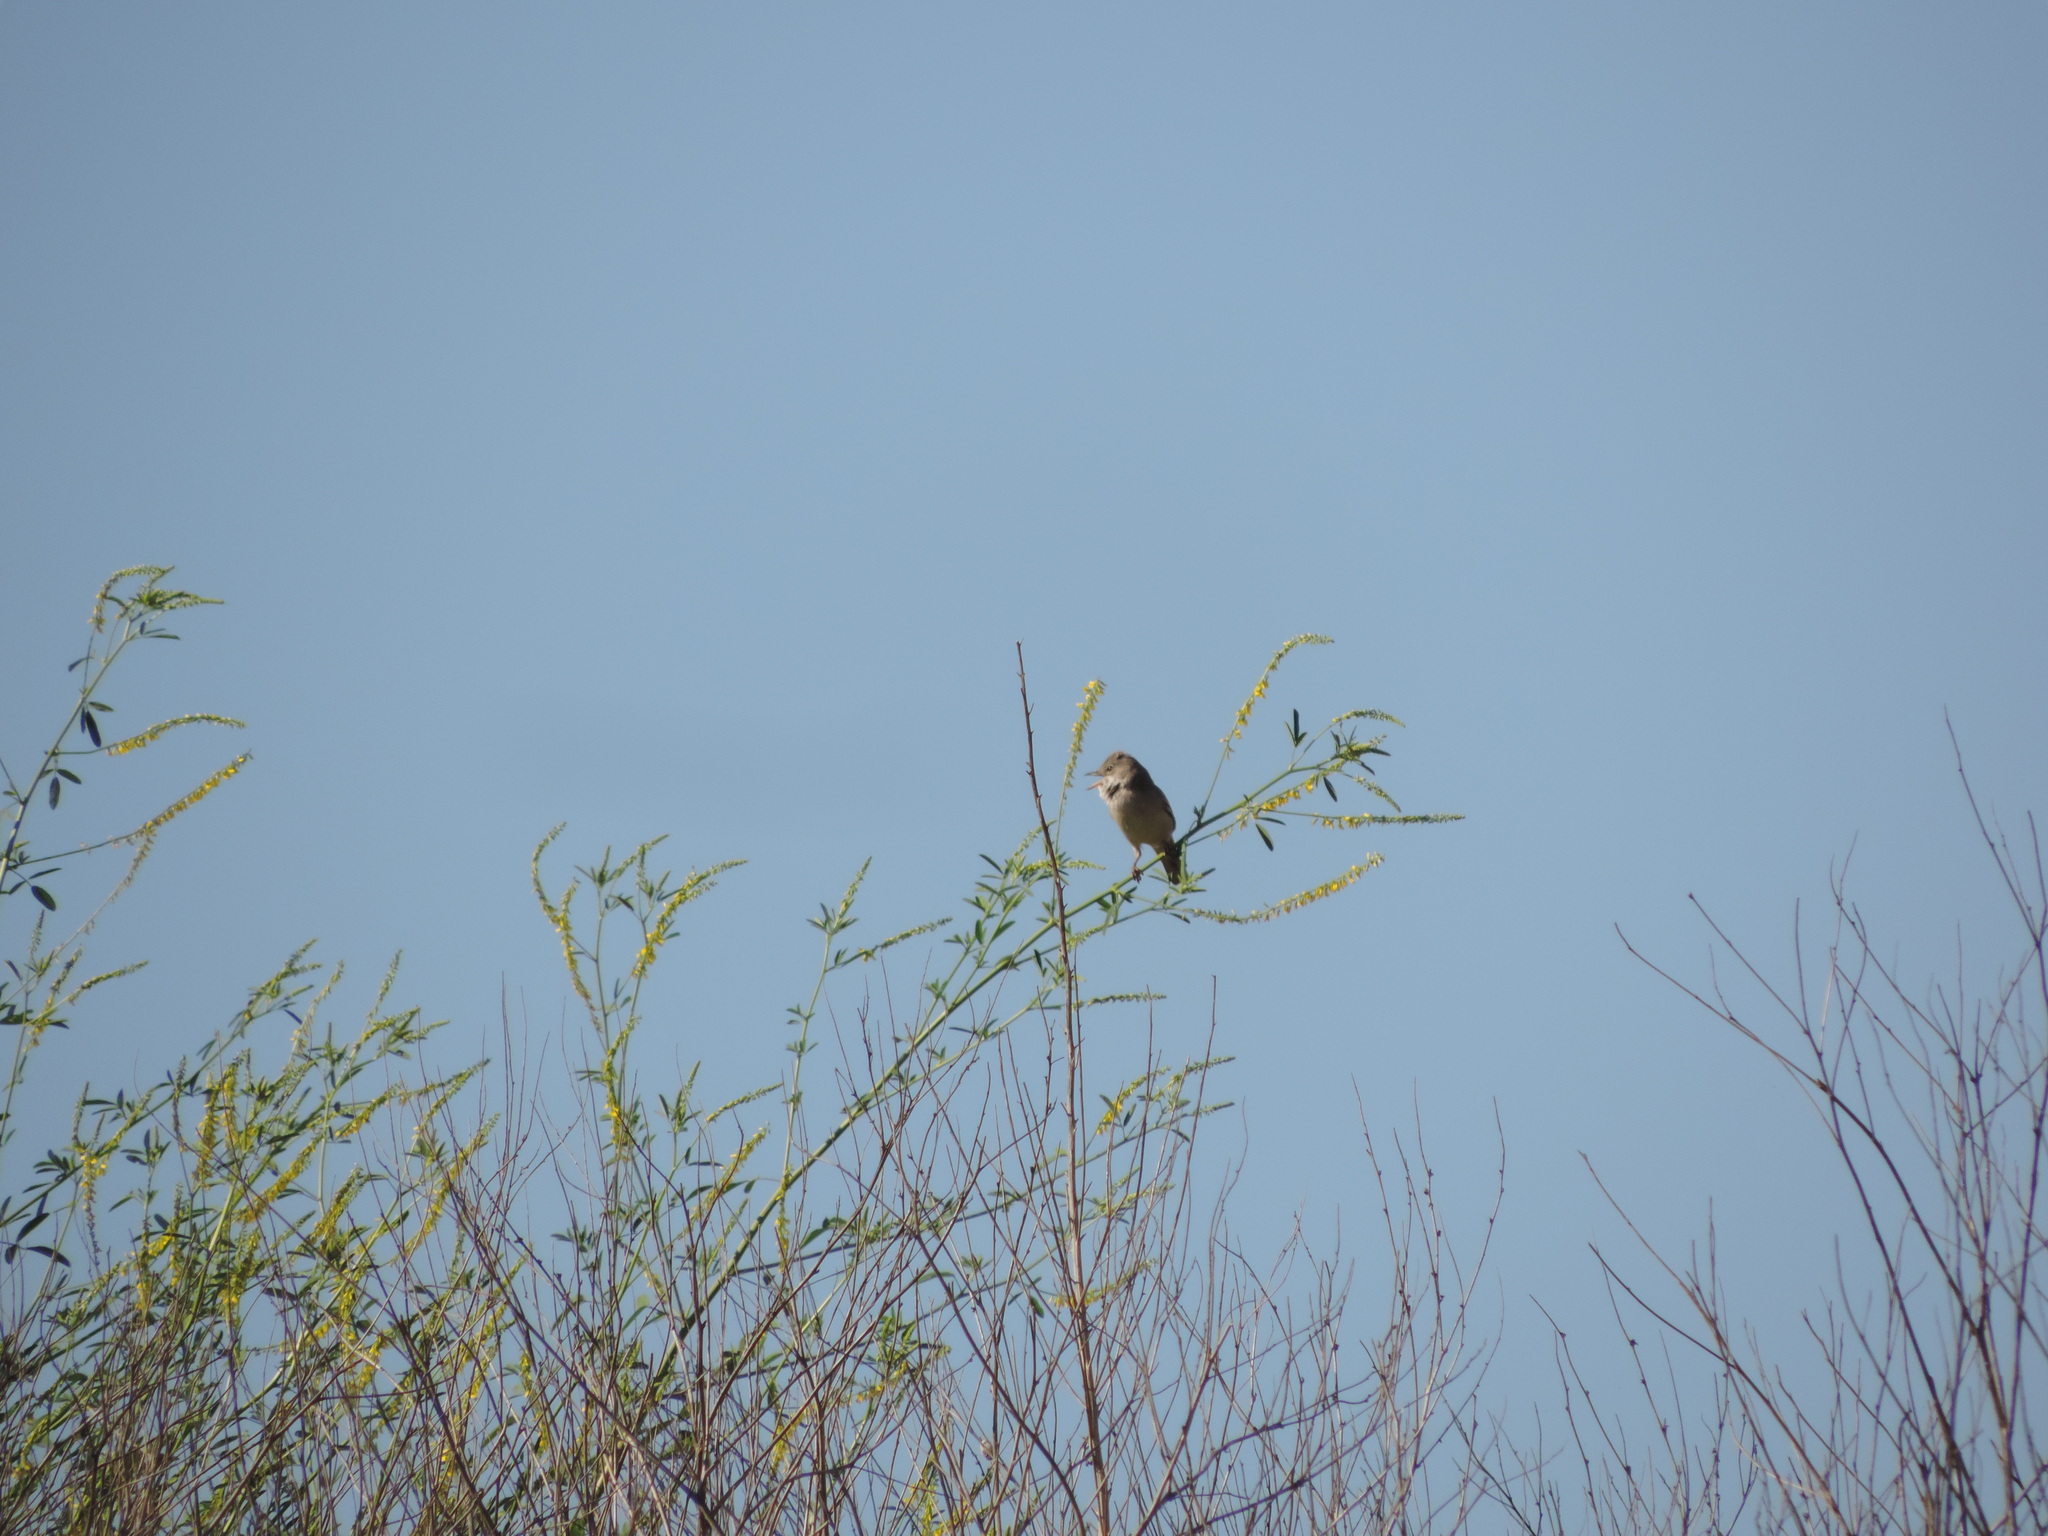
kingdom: Animalia
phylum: Chordata
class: Aves
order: Passeriformes
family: Sylviidae
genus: Sylvia
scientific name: Sylvia communis
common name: Common whitethroat
